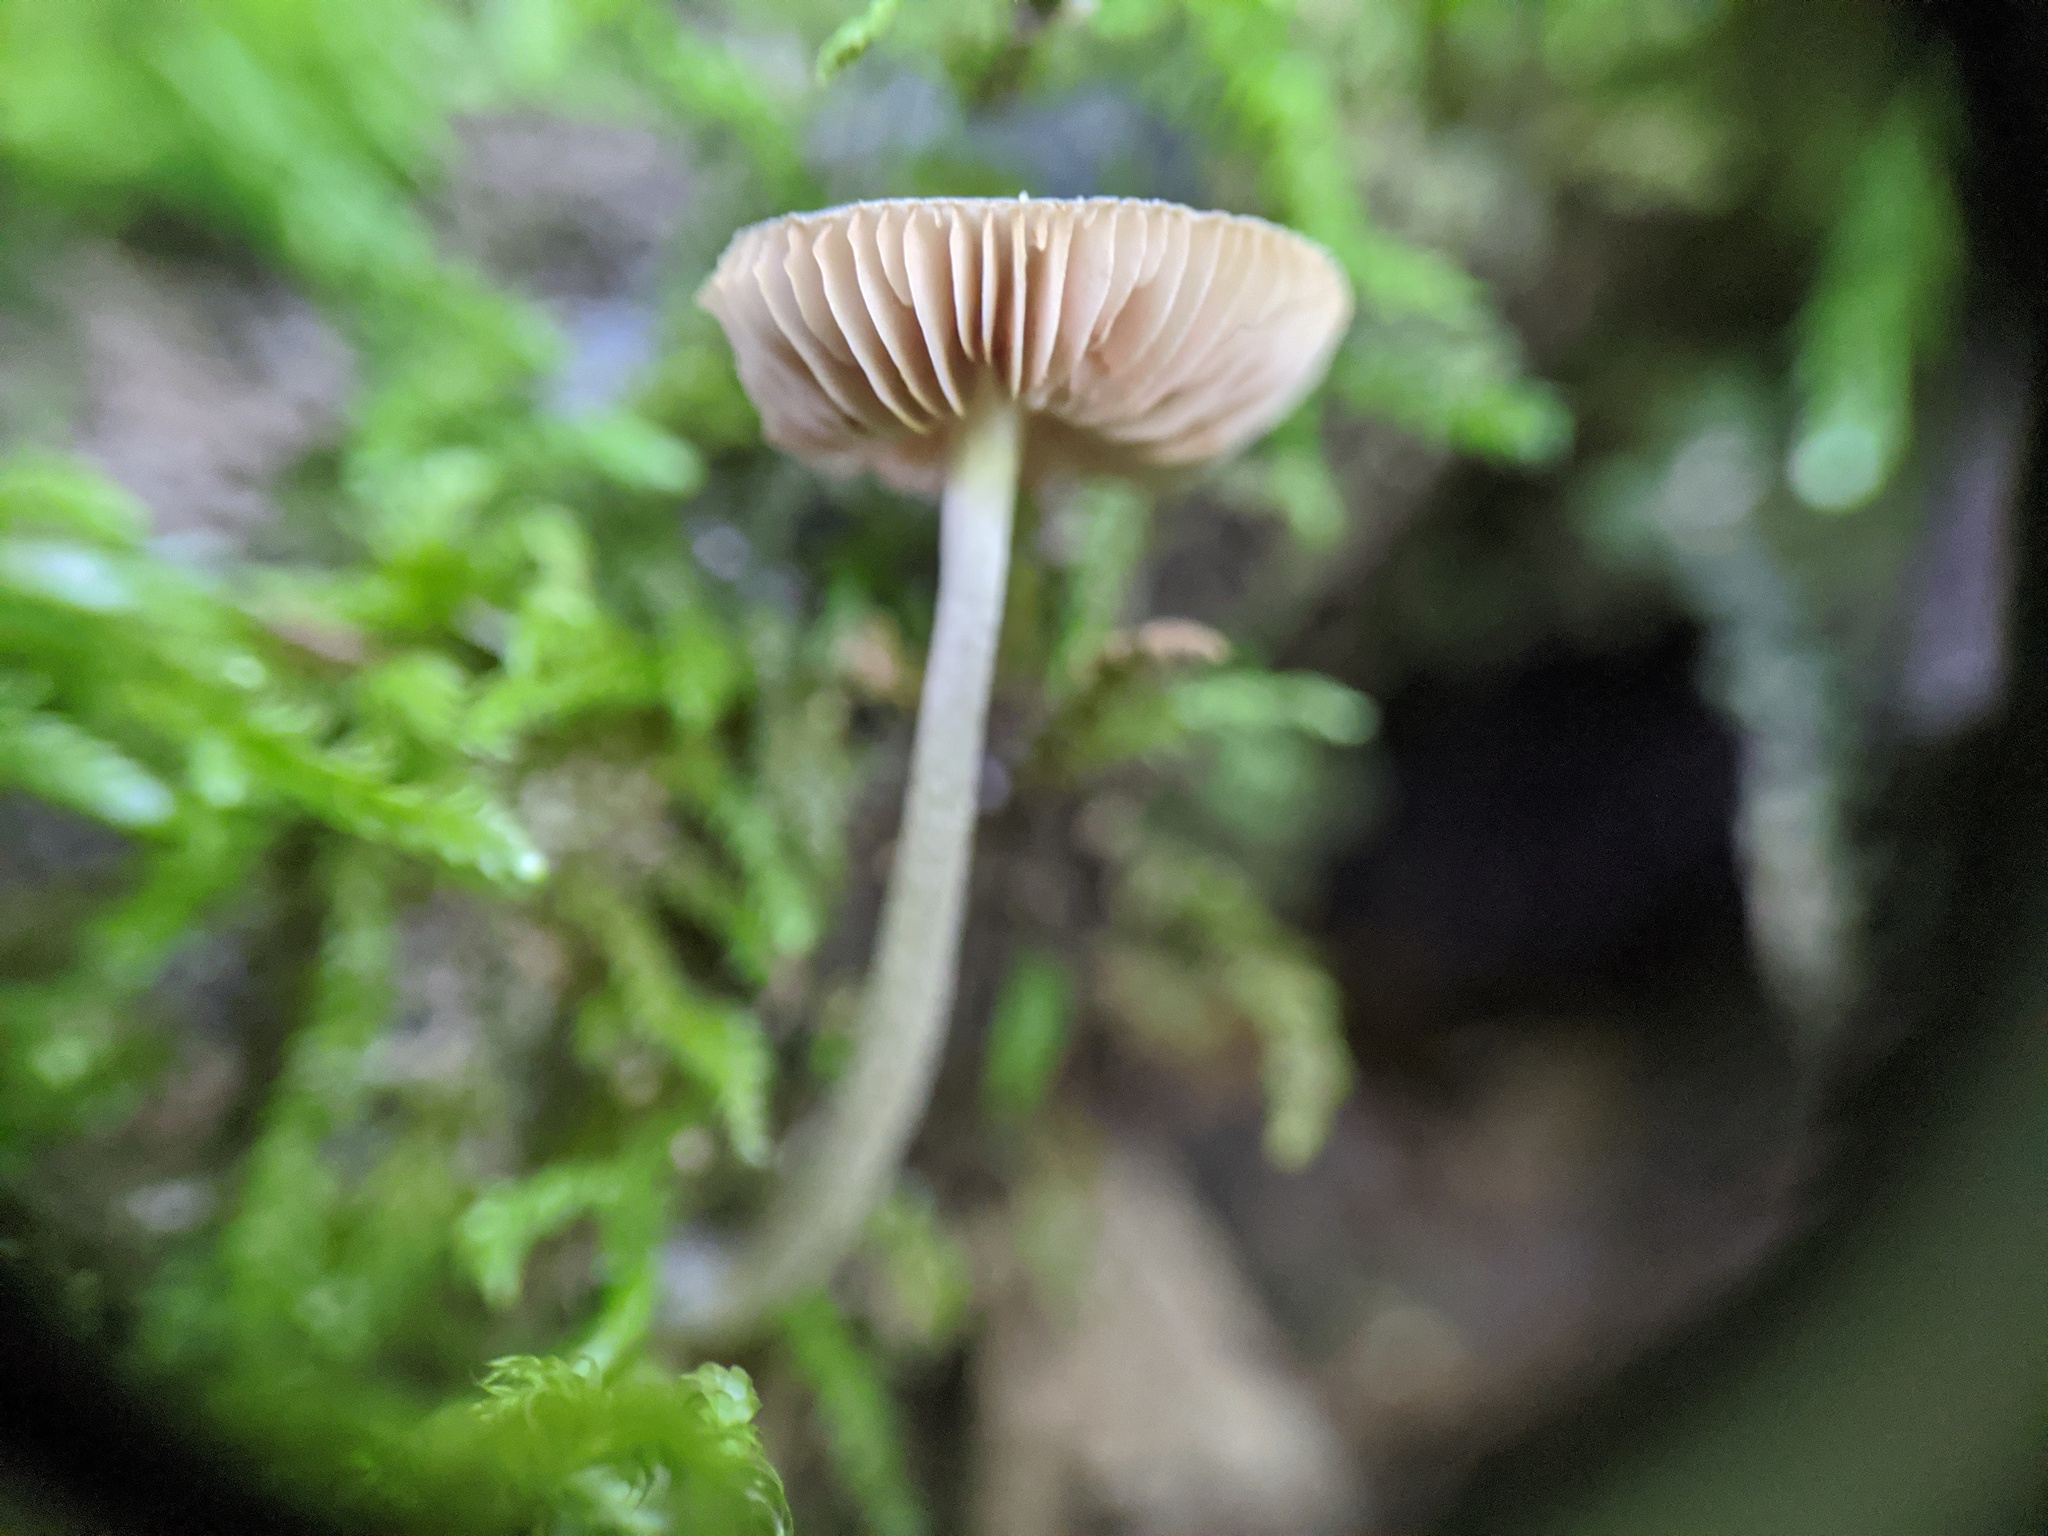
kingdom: Fungi
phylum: Basidiomycota
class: Agaricomycetes
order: Agaricales
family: Pluteaceae
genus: Pluteus
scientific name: Pluteus thomsonii
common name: Veined shield
